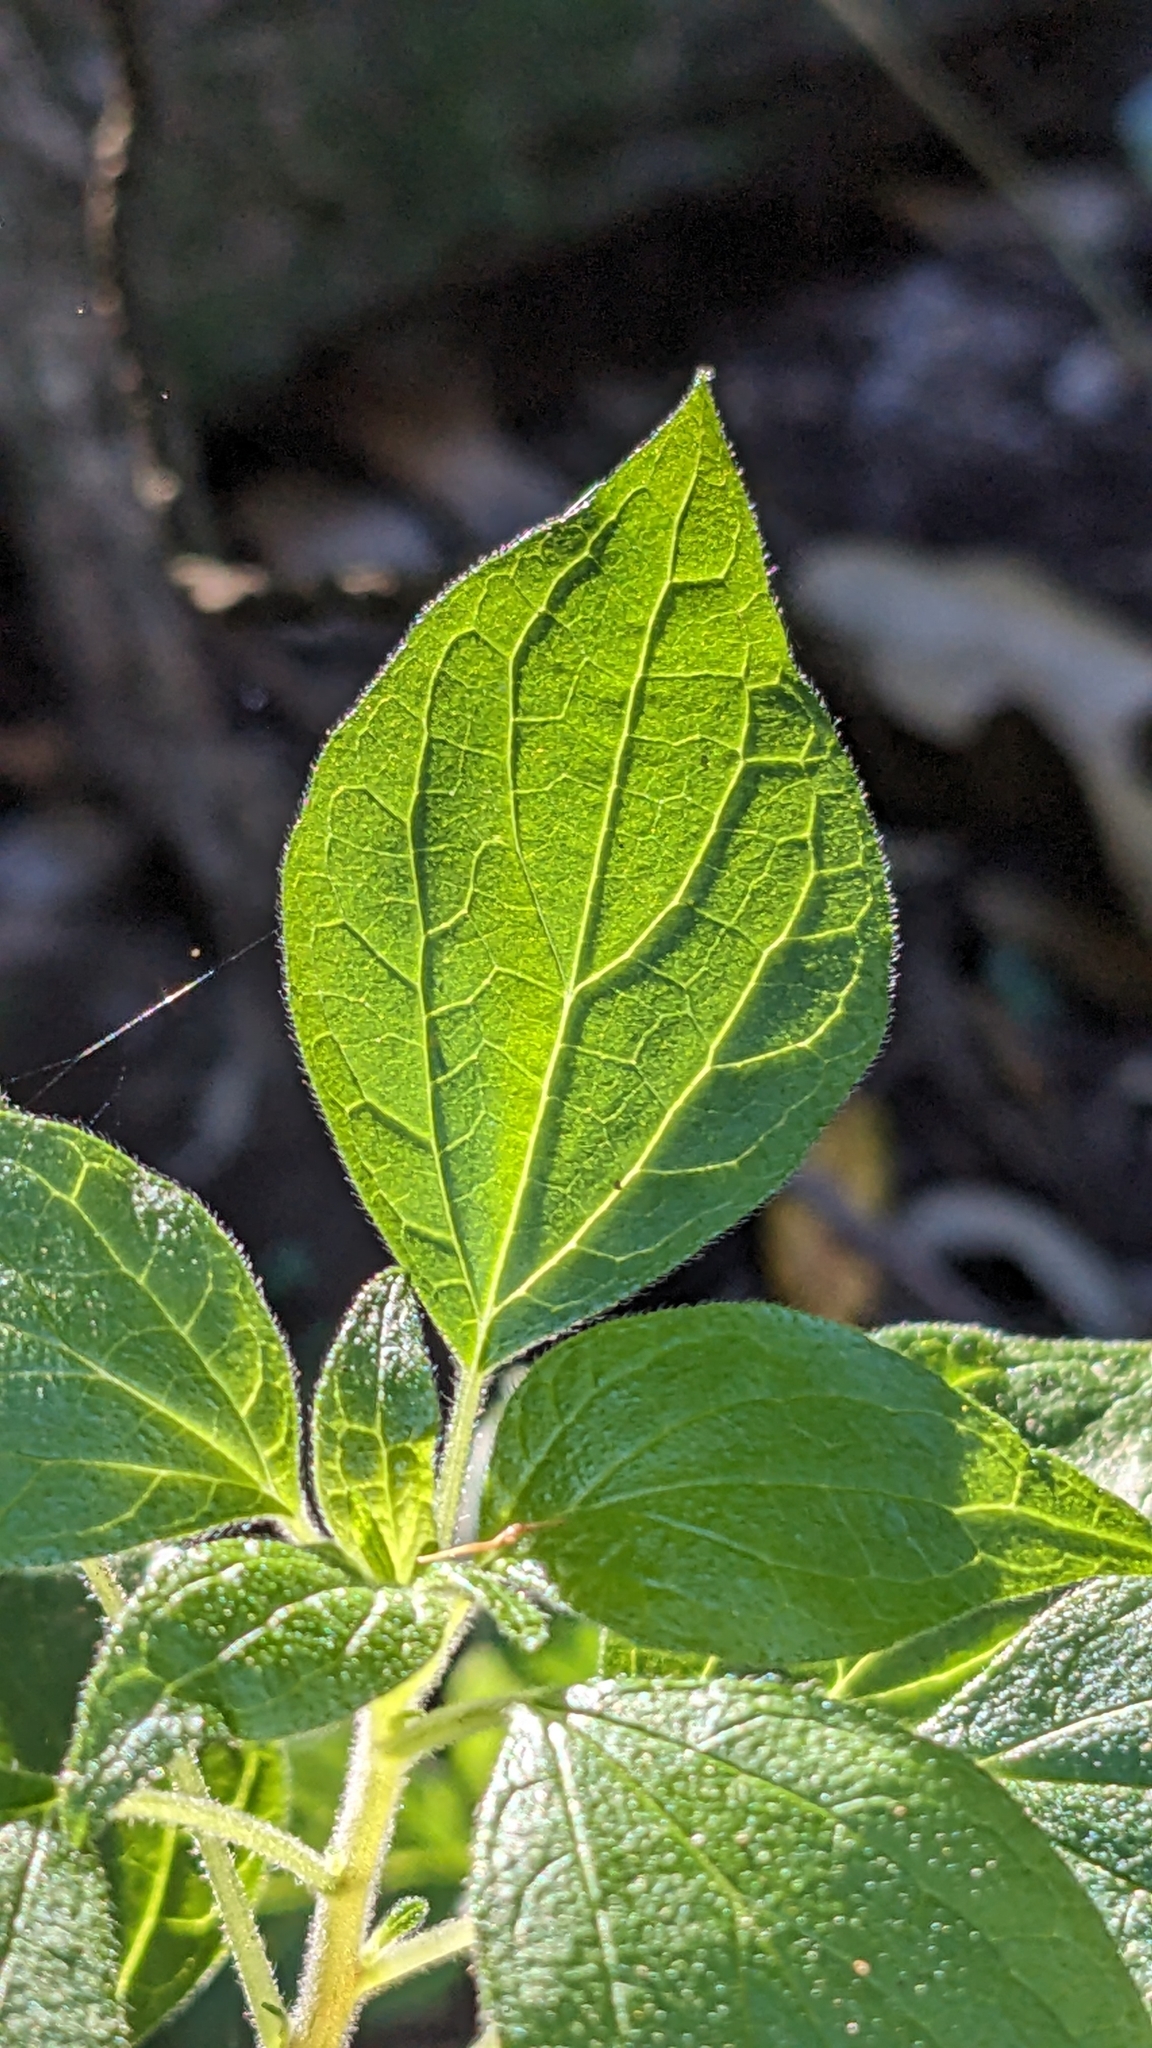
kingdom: Plantae
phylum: Tracheophyta
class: Magnoliopsida
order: Rosales
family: Urticaceae
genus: Parietaria
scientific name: Parietaria judaica
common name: Pellitory-of-the-wall
